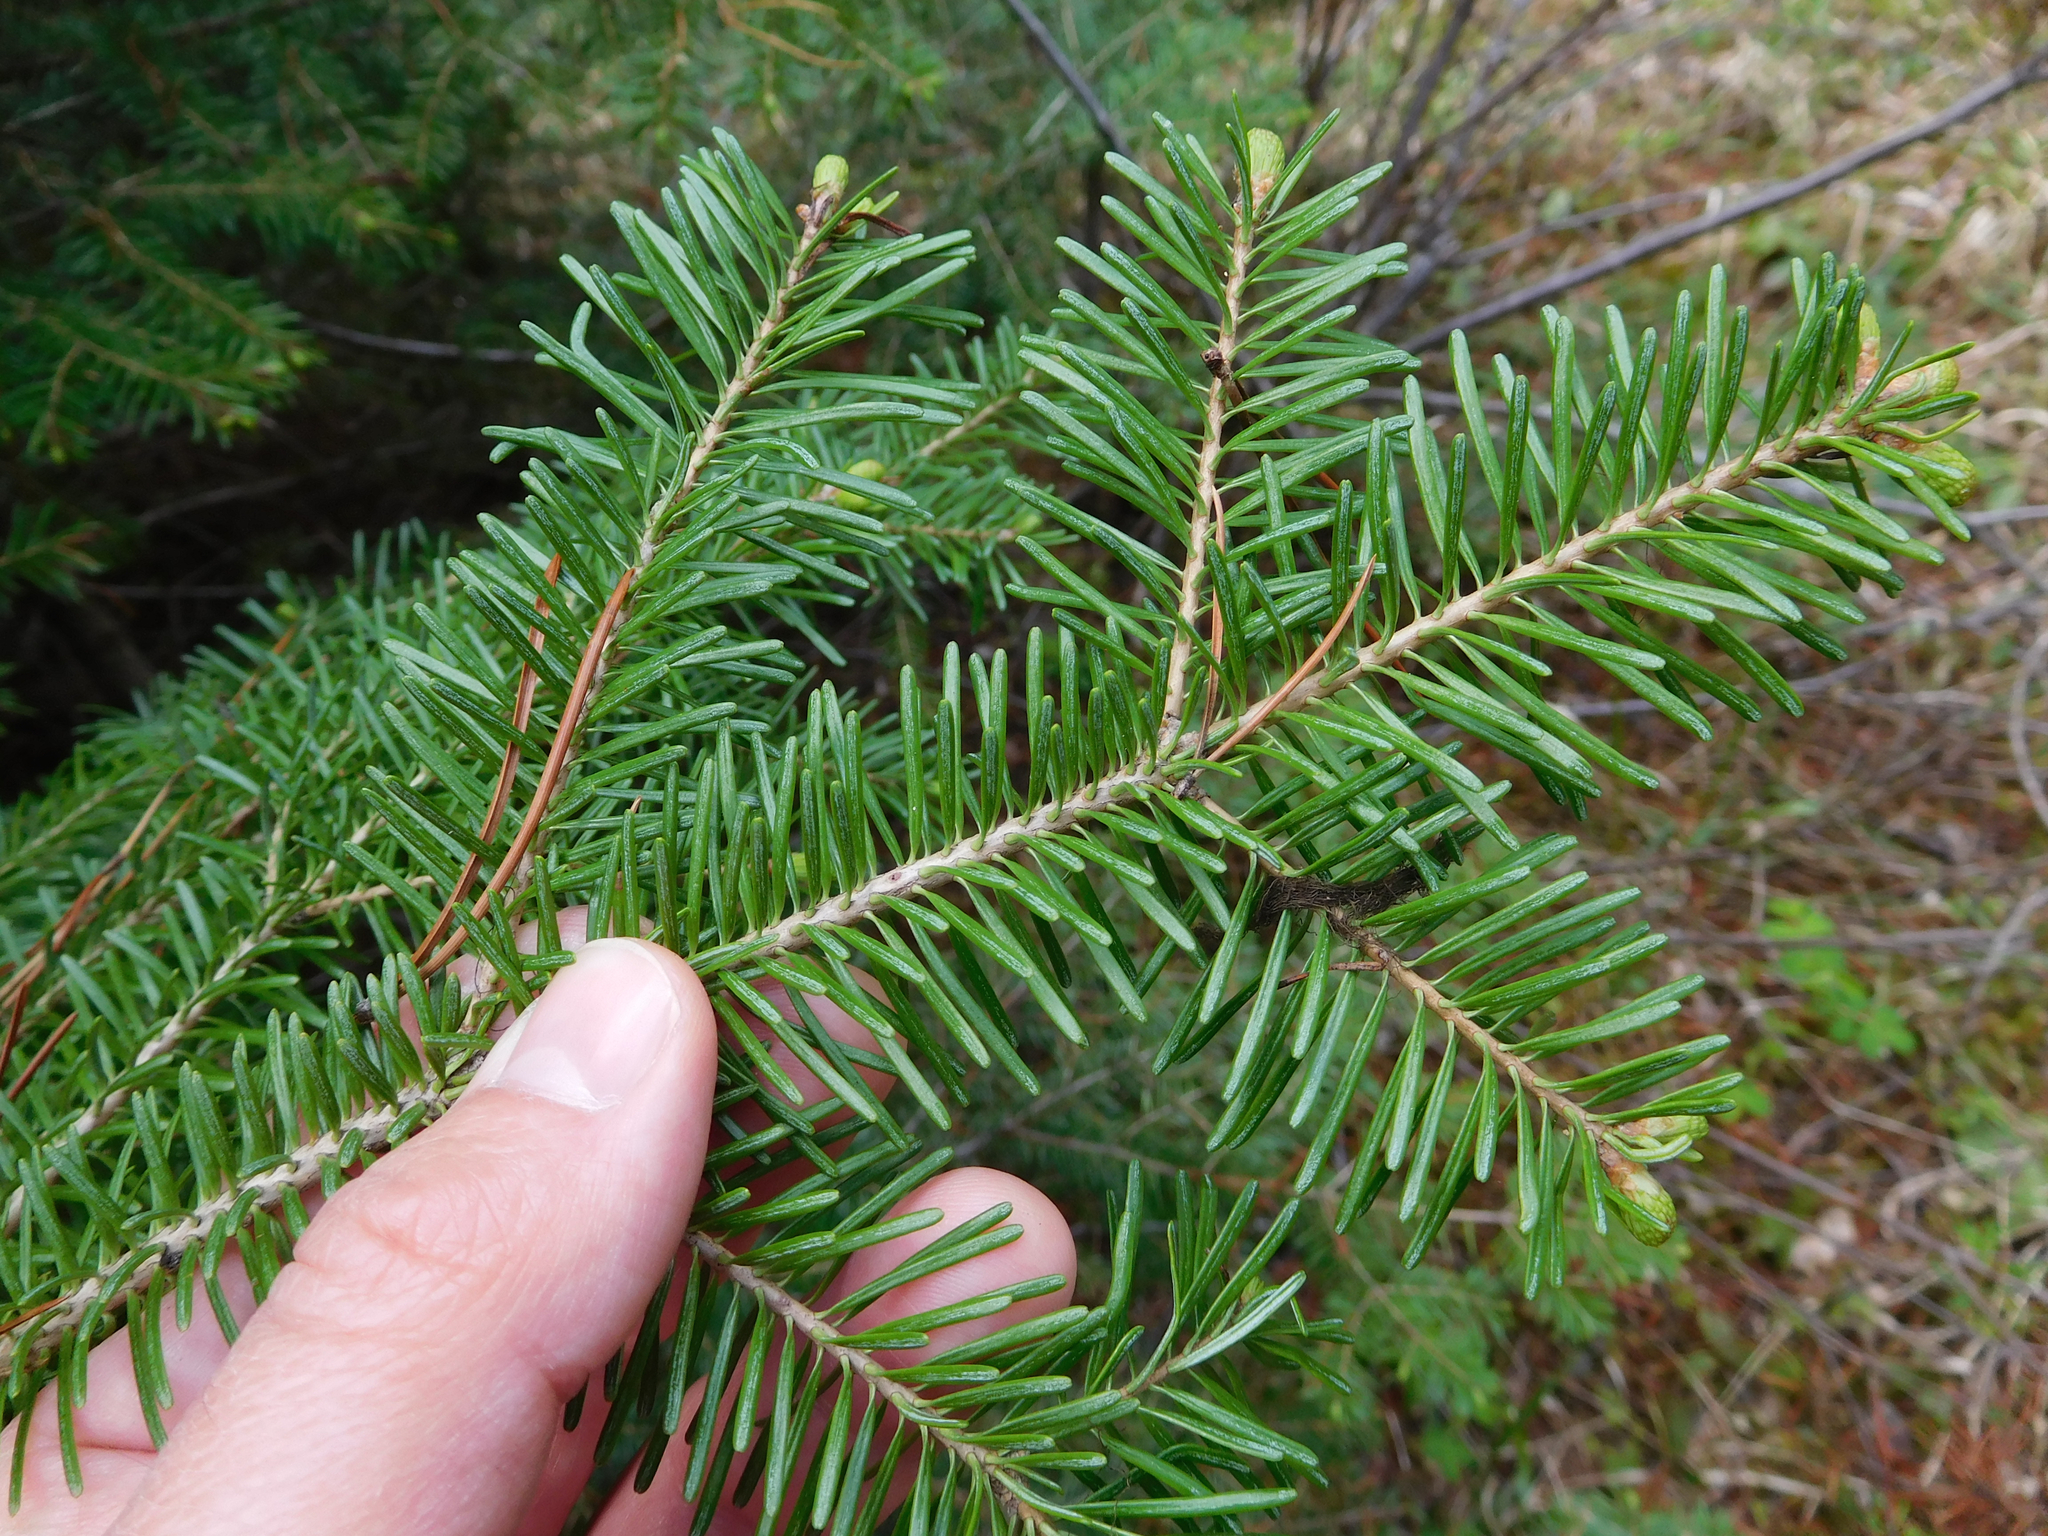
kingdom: Plantae
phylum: Tracheophyta
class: Pinopsida
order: Pinales
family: Pinaceae
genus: Abies
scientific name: Abies lasiocarpa
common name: Subalpine fir
